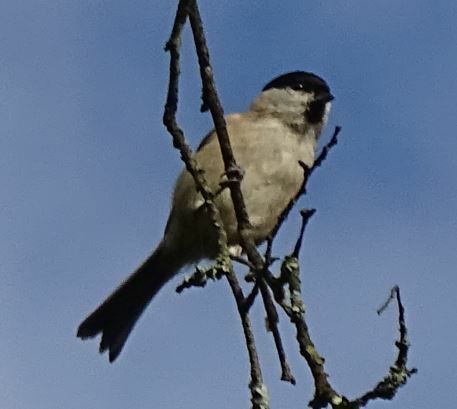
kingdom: Animalia
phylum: Chordata
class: Aves
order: Passeriformes
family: Paridae
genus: Poecile
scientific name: Poecile palustris
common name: Marsh tit
